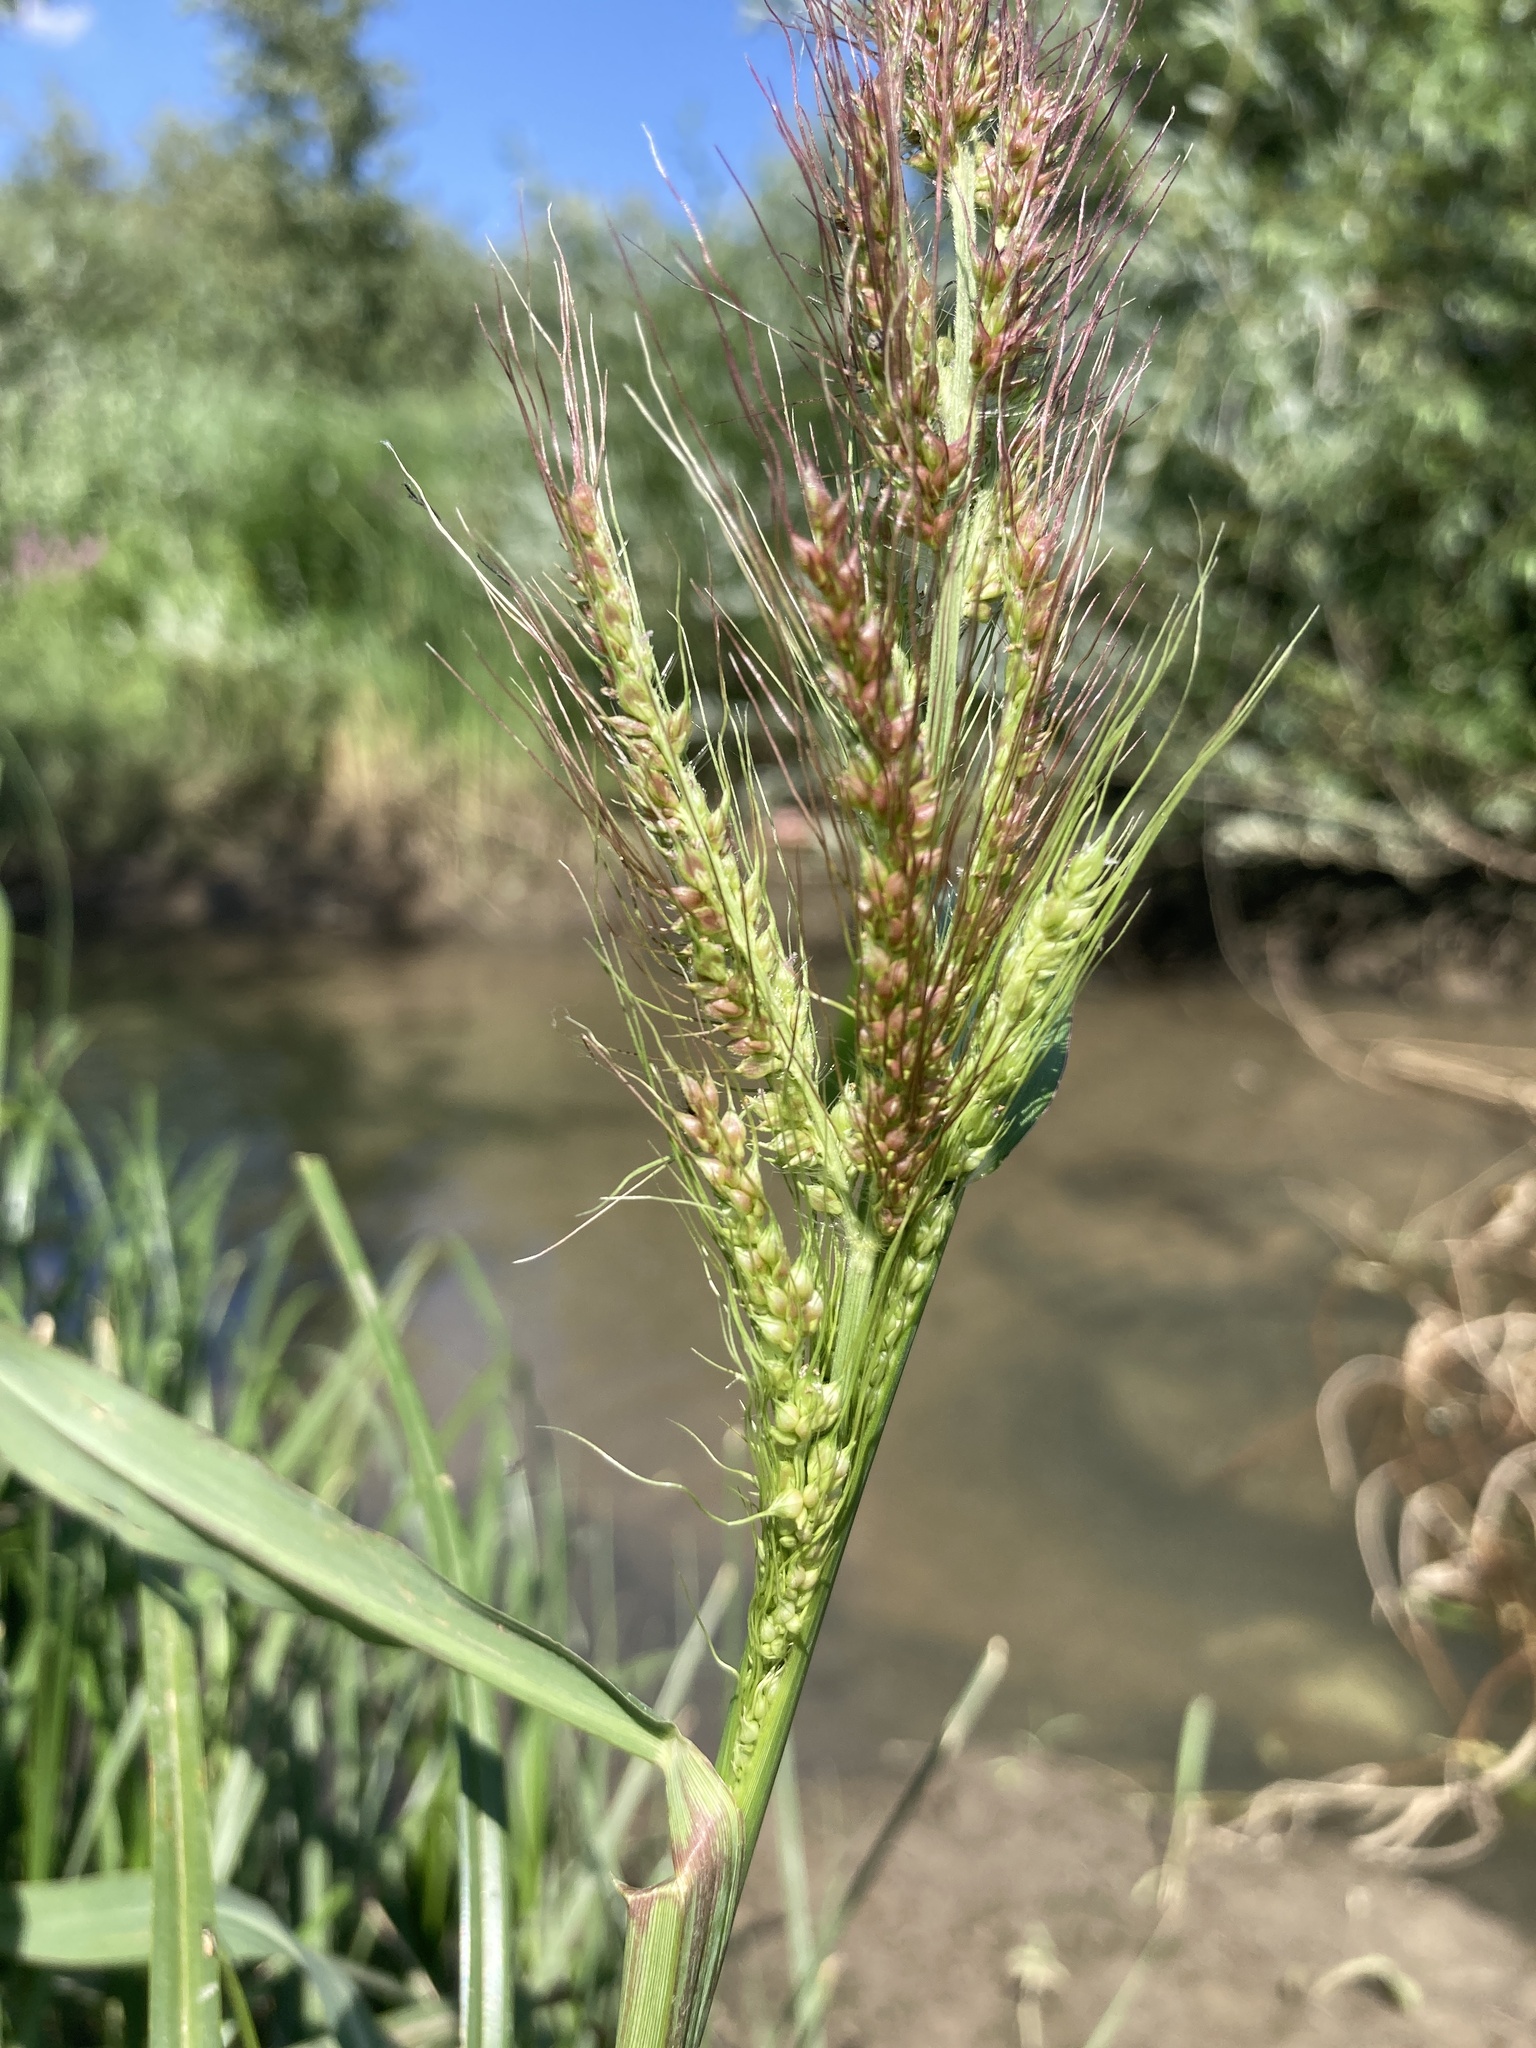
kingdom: Plantae
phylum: Tracheophyta
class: Liliopsida
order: Poales
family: Poaceae
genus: Echinochloa
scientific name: Echinochloa crus-galli
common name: Cockspur
